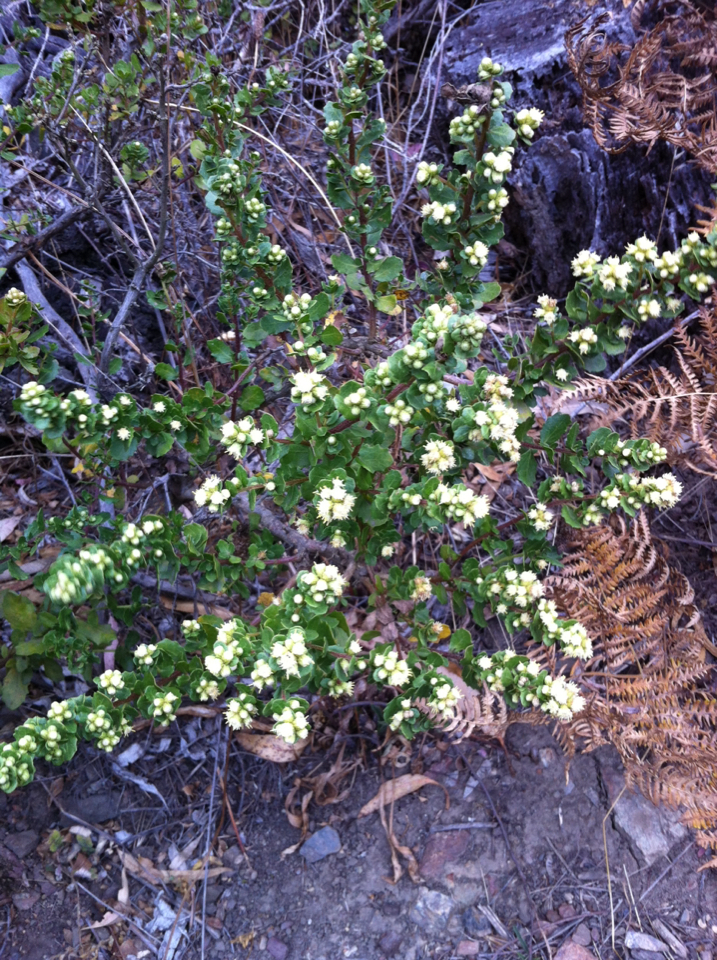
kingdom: Plantae
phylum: Tracheophyta
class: Magnoliopsida
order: Asterales
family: Asteraceae
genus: Baccharis
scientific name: Baccharis pilularis
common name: Coyotebrush
